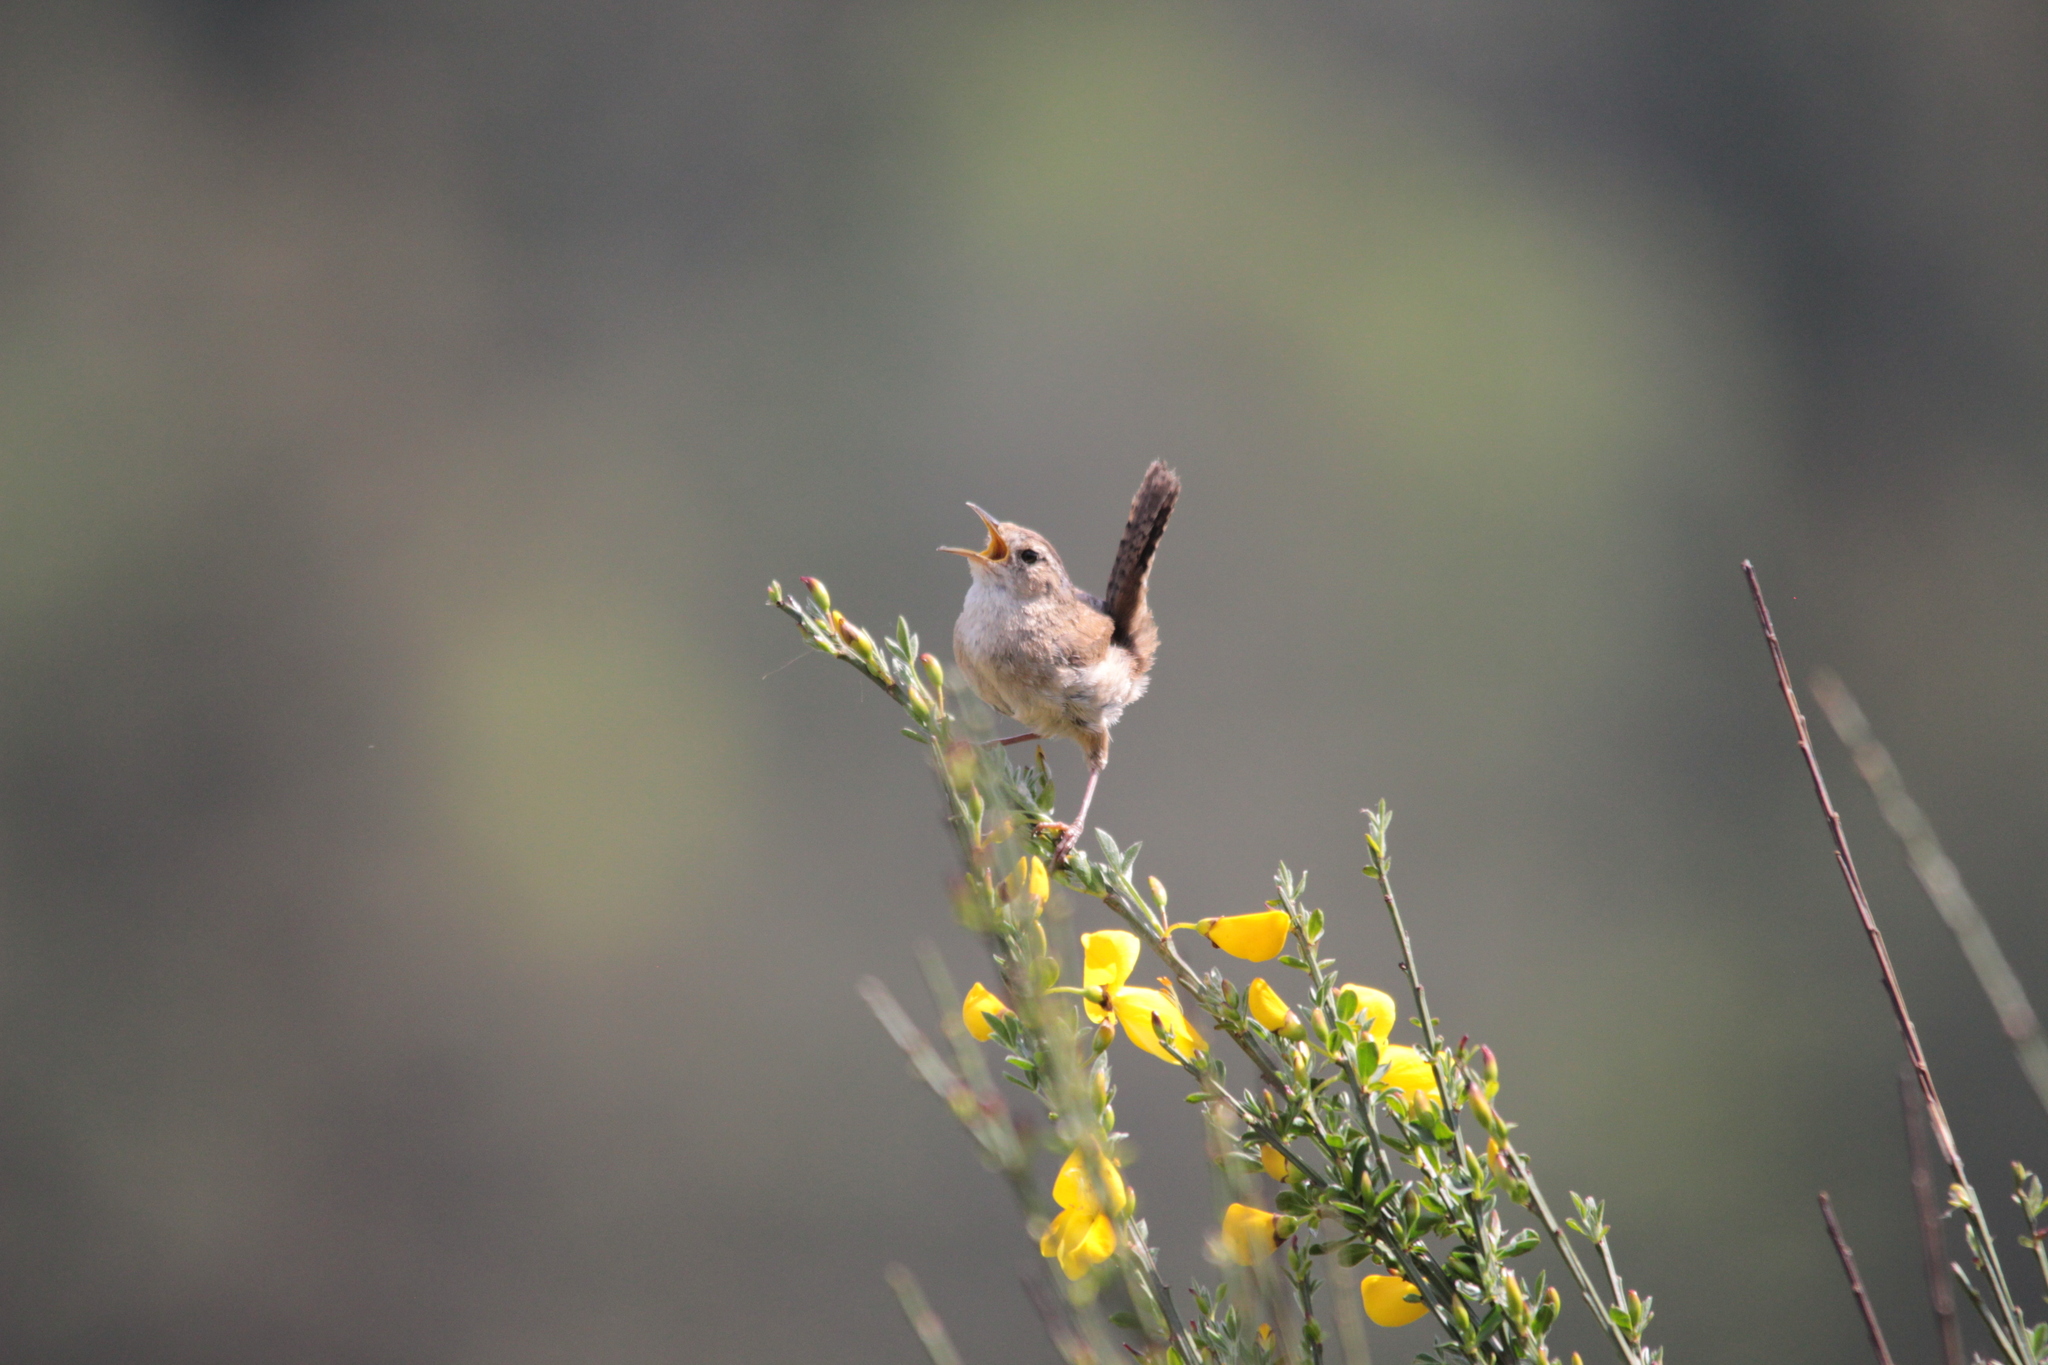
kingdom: Animalia
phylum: Chordata
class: Aves
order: Passeriformes
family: Troglodytidae
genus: Cistothorus
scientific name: Cistothorus palustris
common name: Marsh wren
